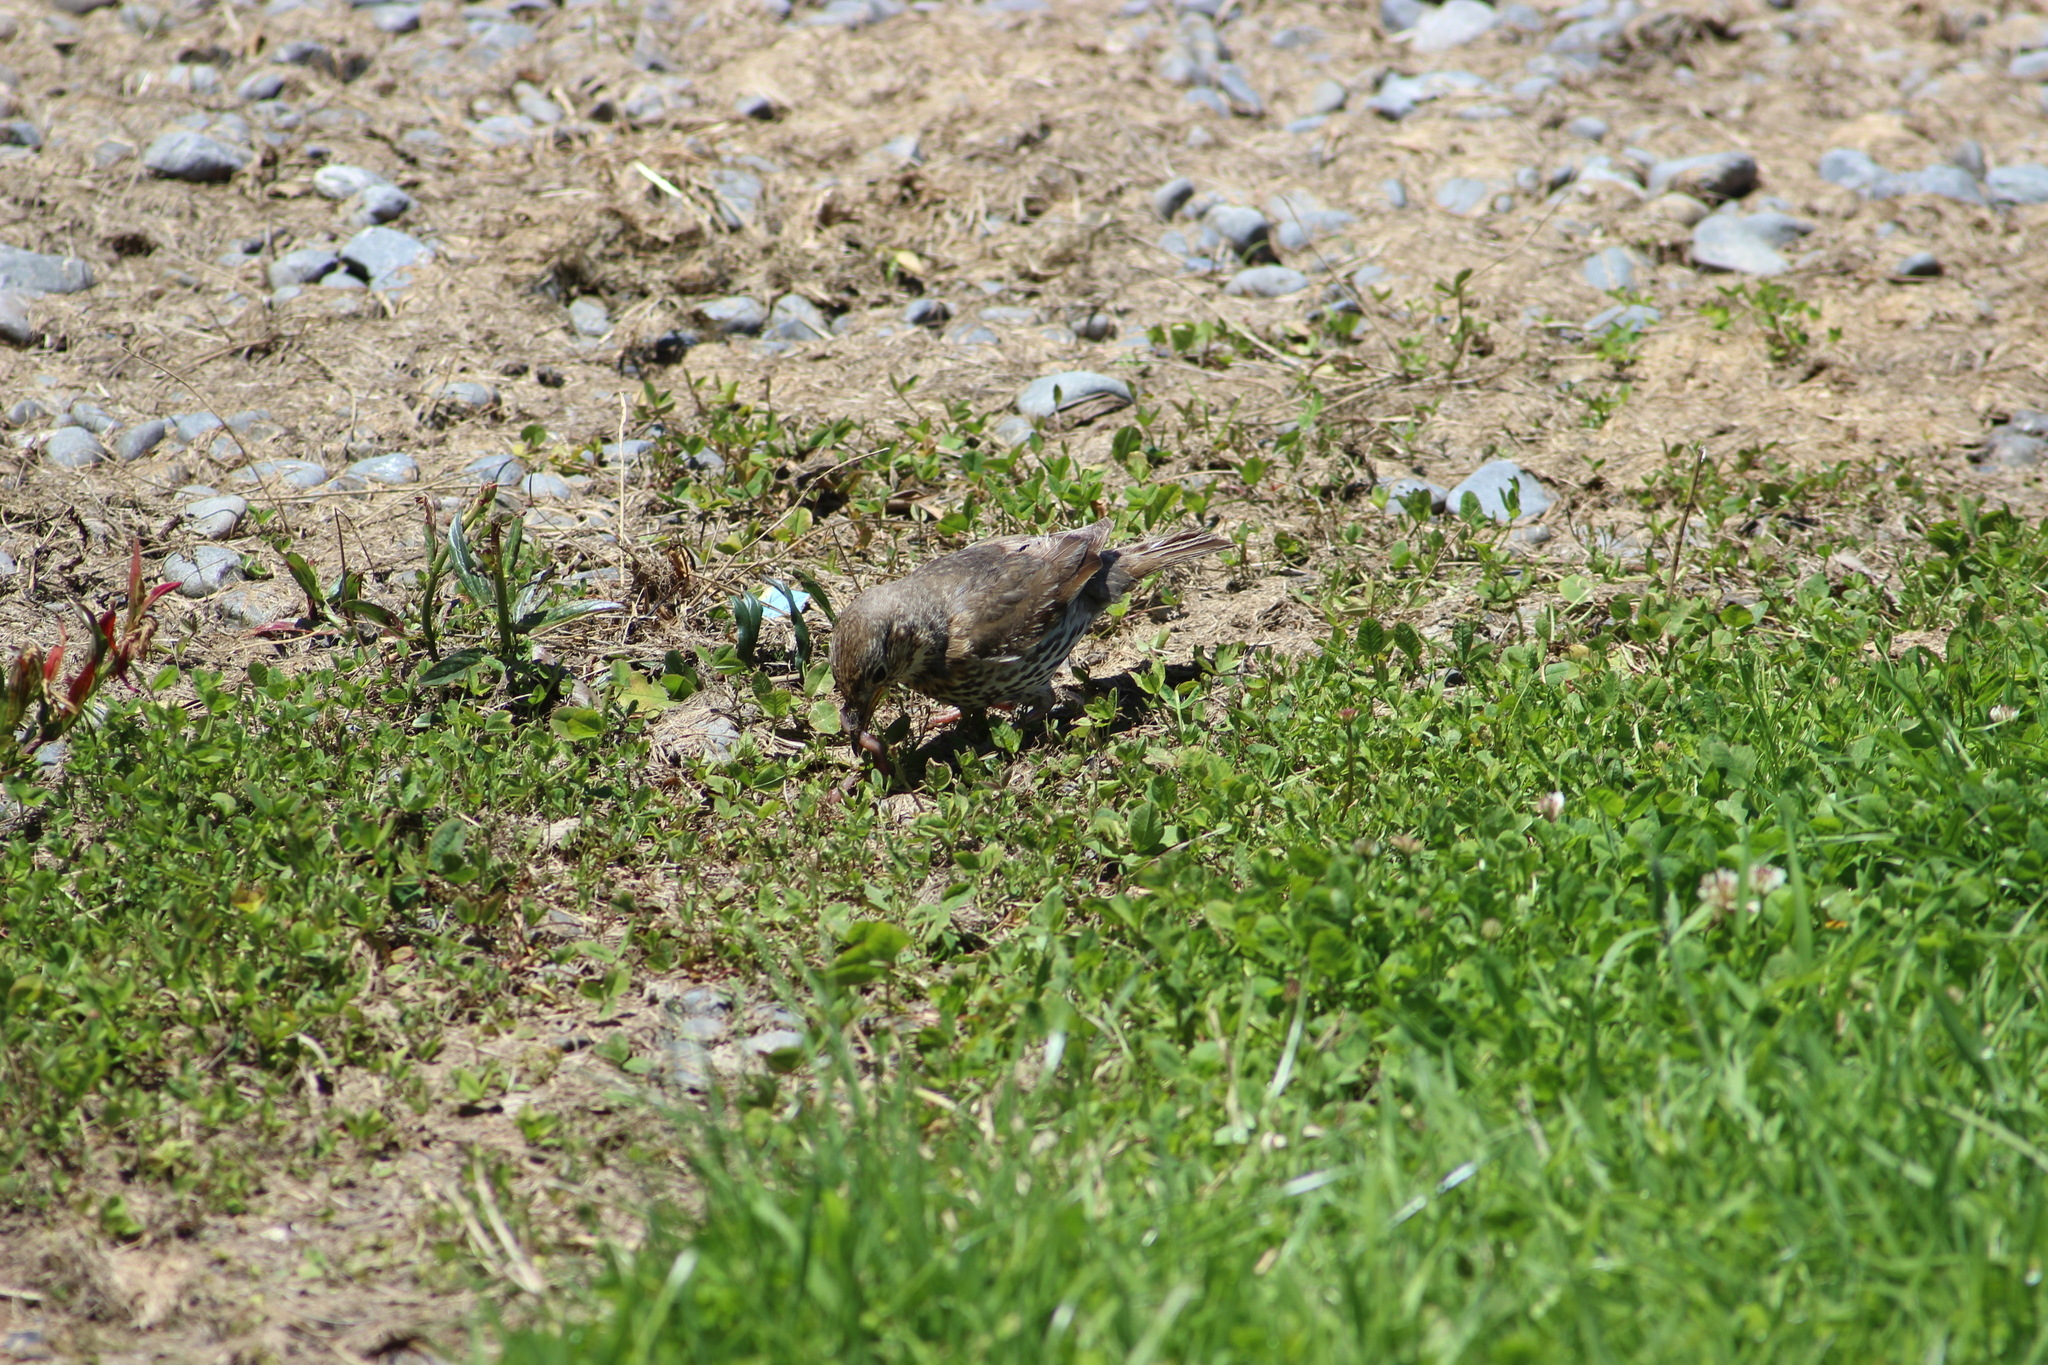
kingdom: Animalia
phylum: Chordata
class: Aves
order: Passeriformes
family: Turdidae
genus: Turdus
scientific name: Turdus philomelos
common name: Song thrush
